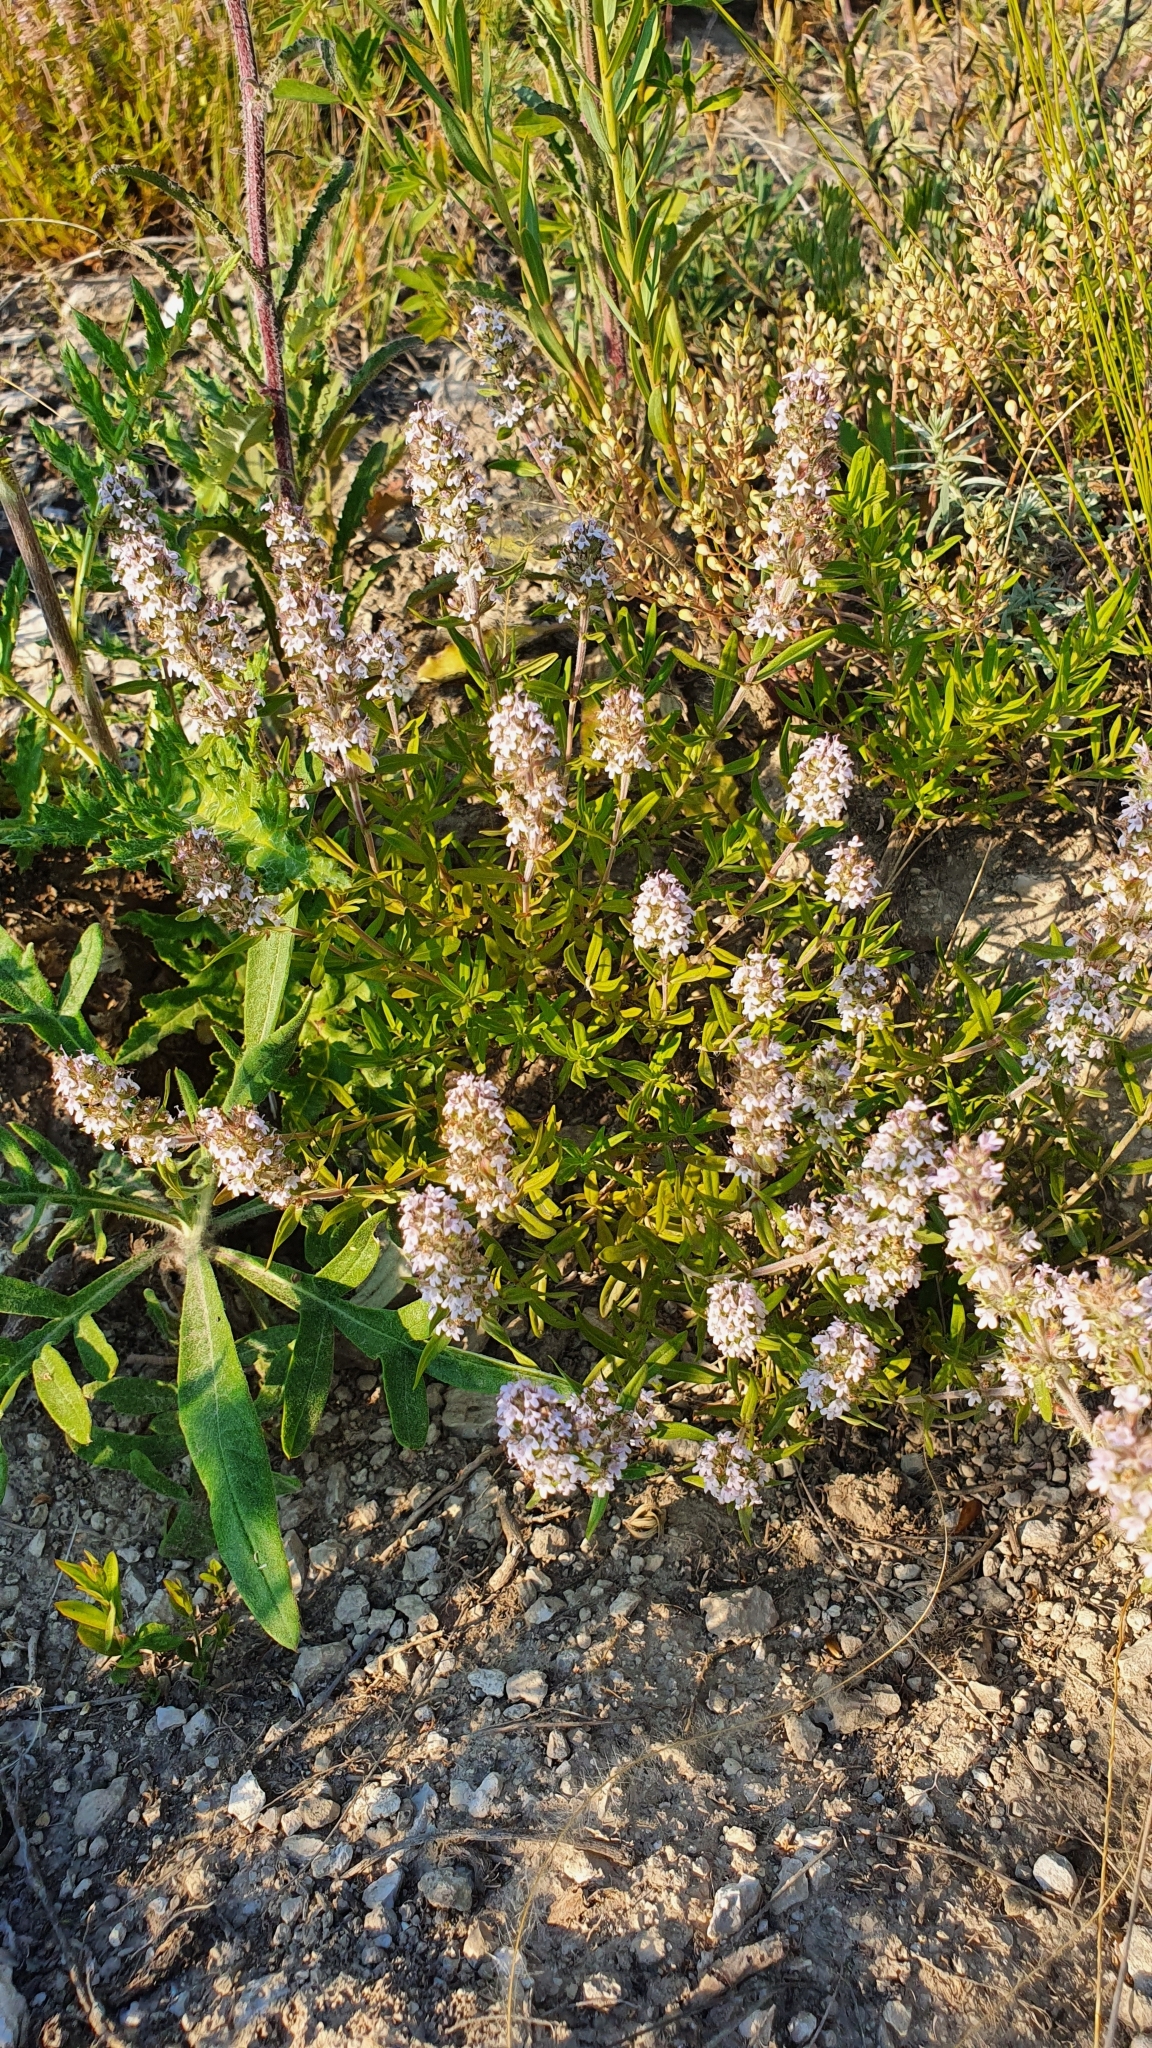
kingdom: Plantae
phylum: Tracheophyta
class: Magnoliopsida
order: Lamiales
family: Lamiaceae
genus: Thymus
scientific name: Thymus pannonicus
